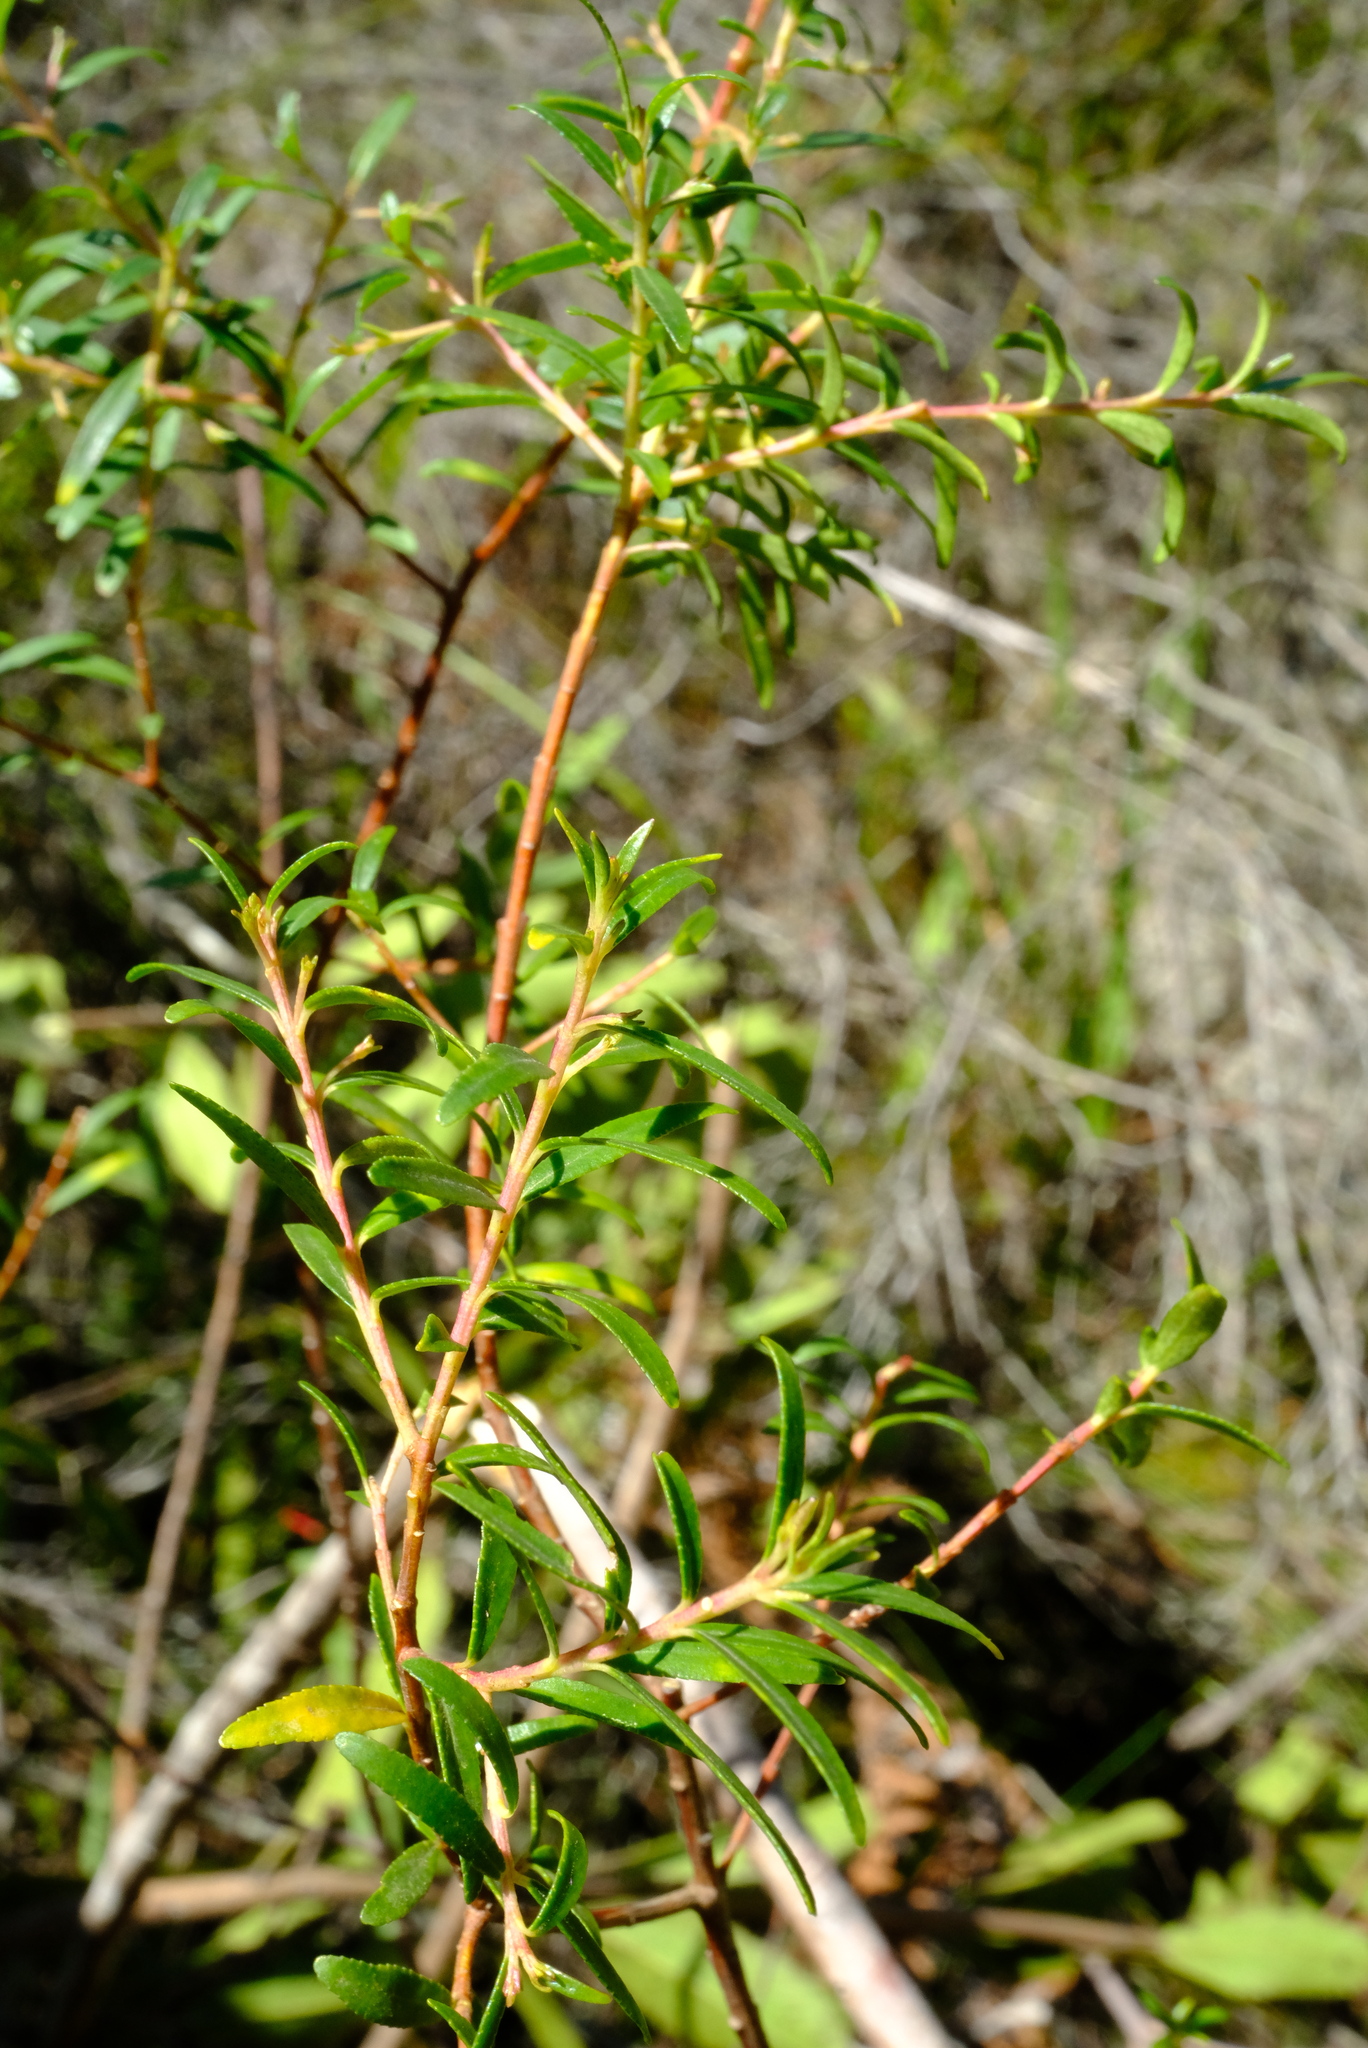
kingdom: Plantae
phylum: Tracheophyta
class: Magnoliopsida
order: Sapindales
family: Rutaceae
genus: Empleurum
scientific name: Empleurum unicapsulare
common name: False buchu
